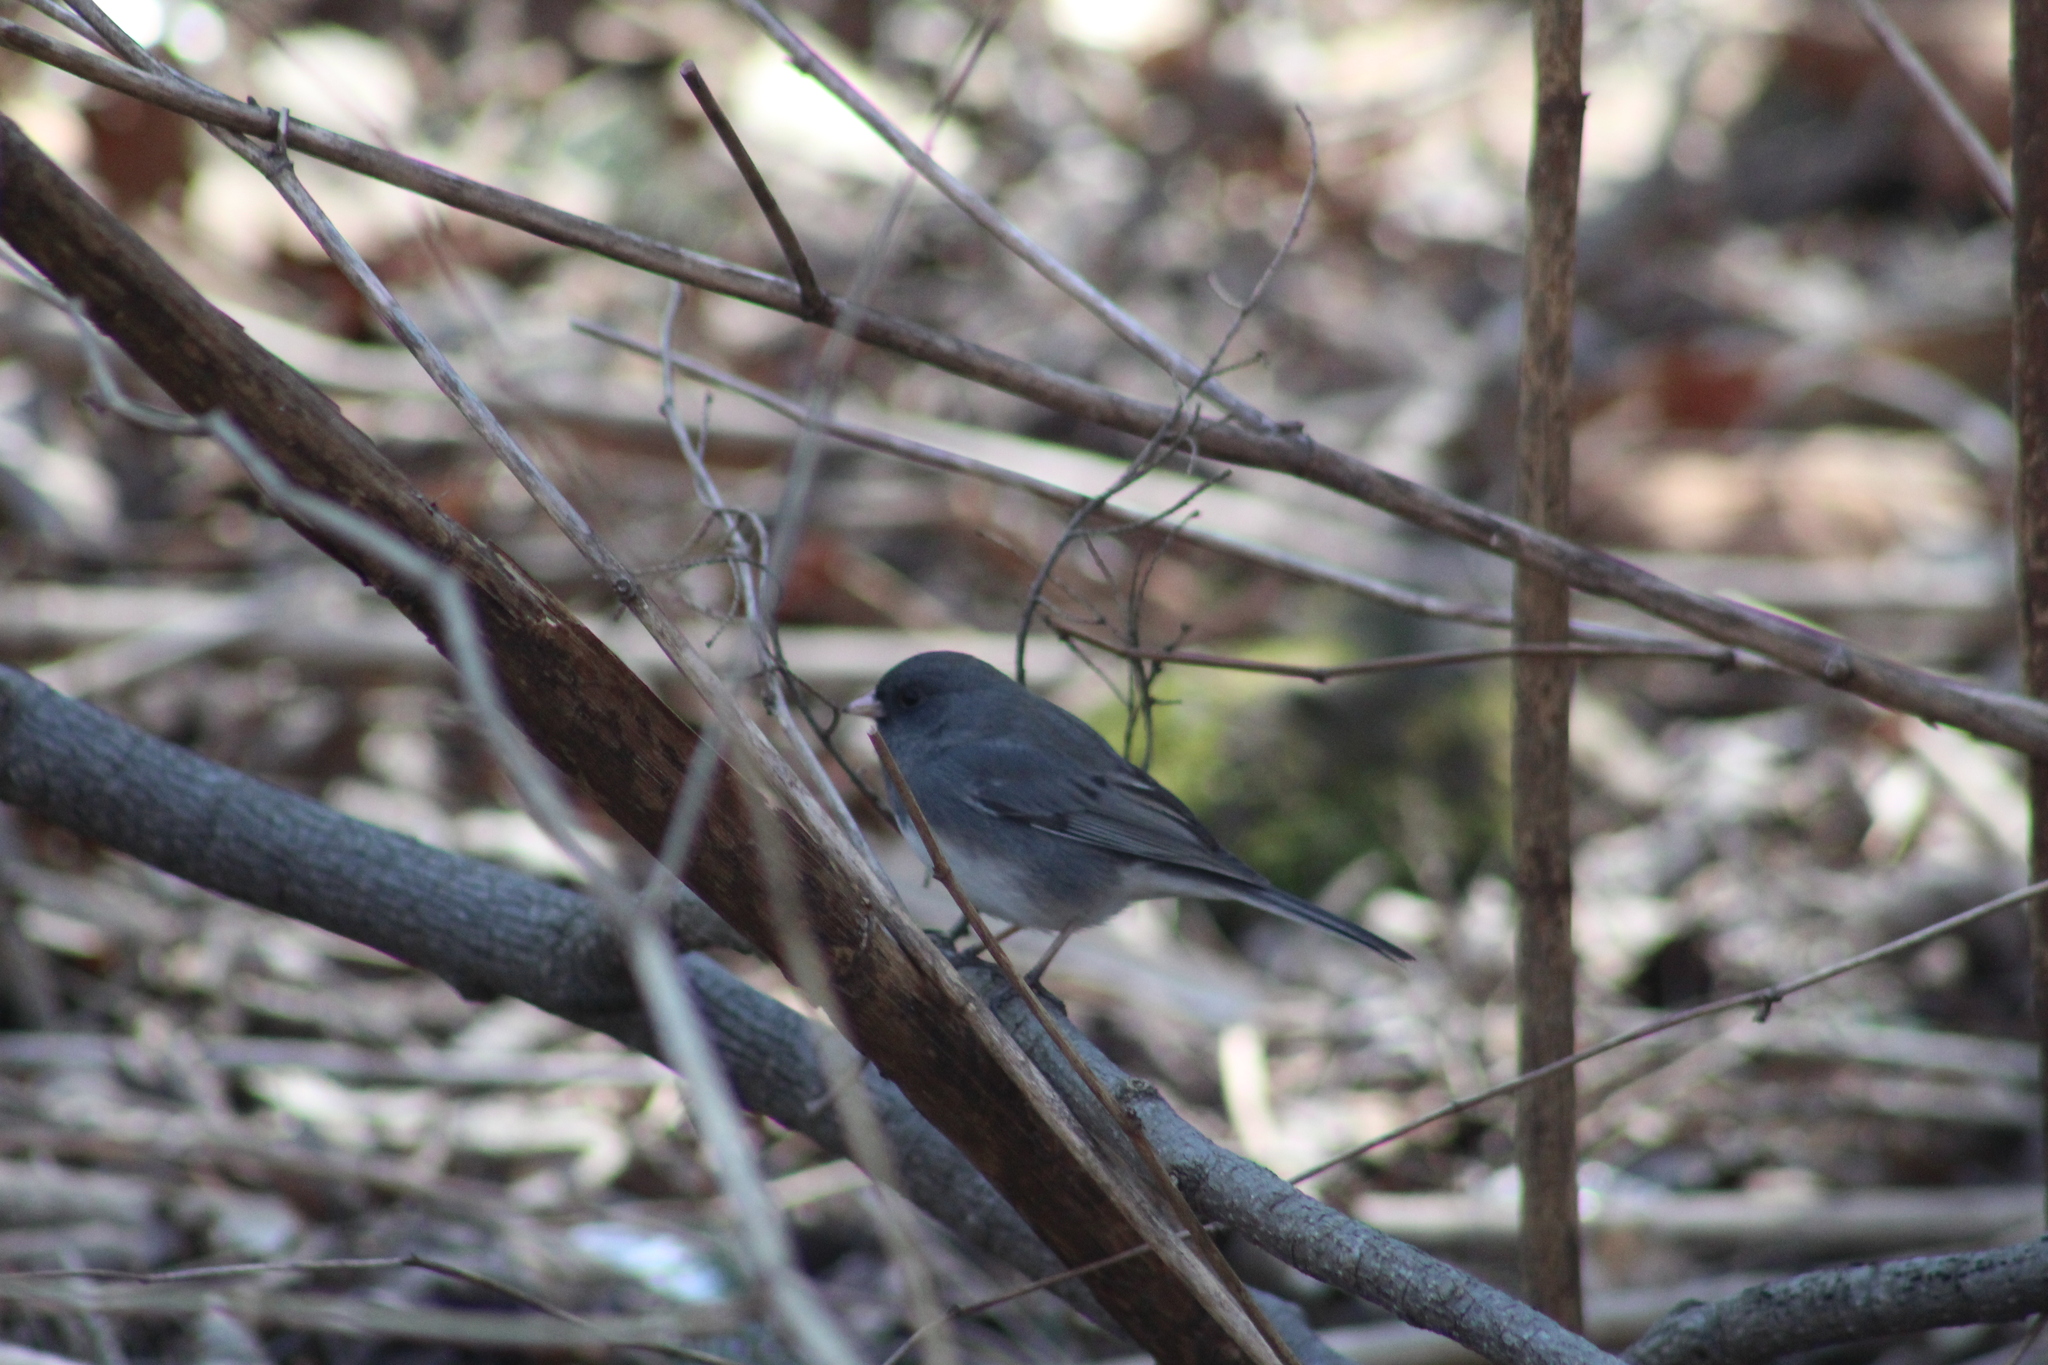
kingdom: Animalia
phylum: Chordata
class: Aves
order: Passeriformes
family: Passerellidae
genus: Junco
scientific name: Junco hyemalis
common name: Dark-eyed junco
